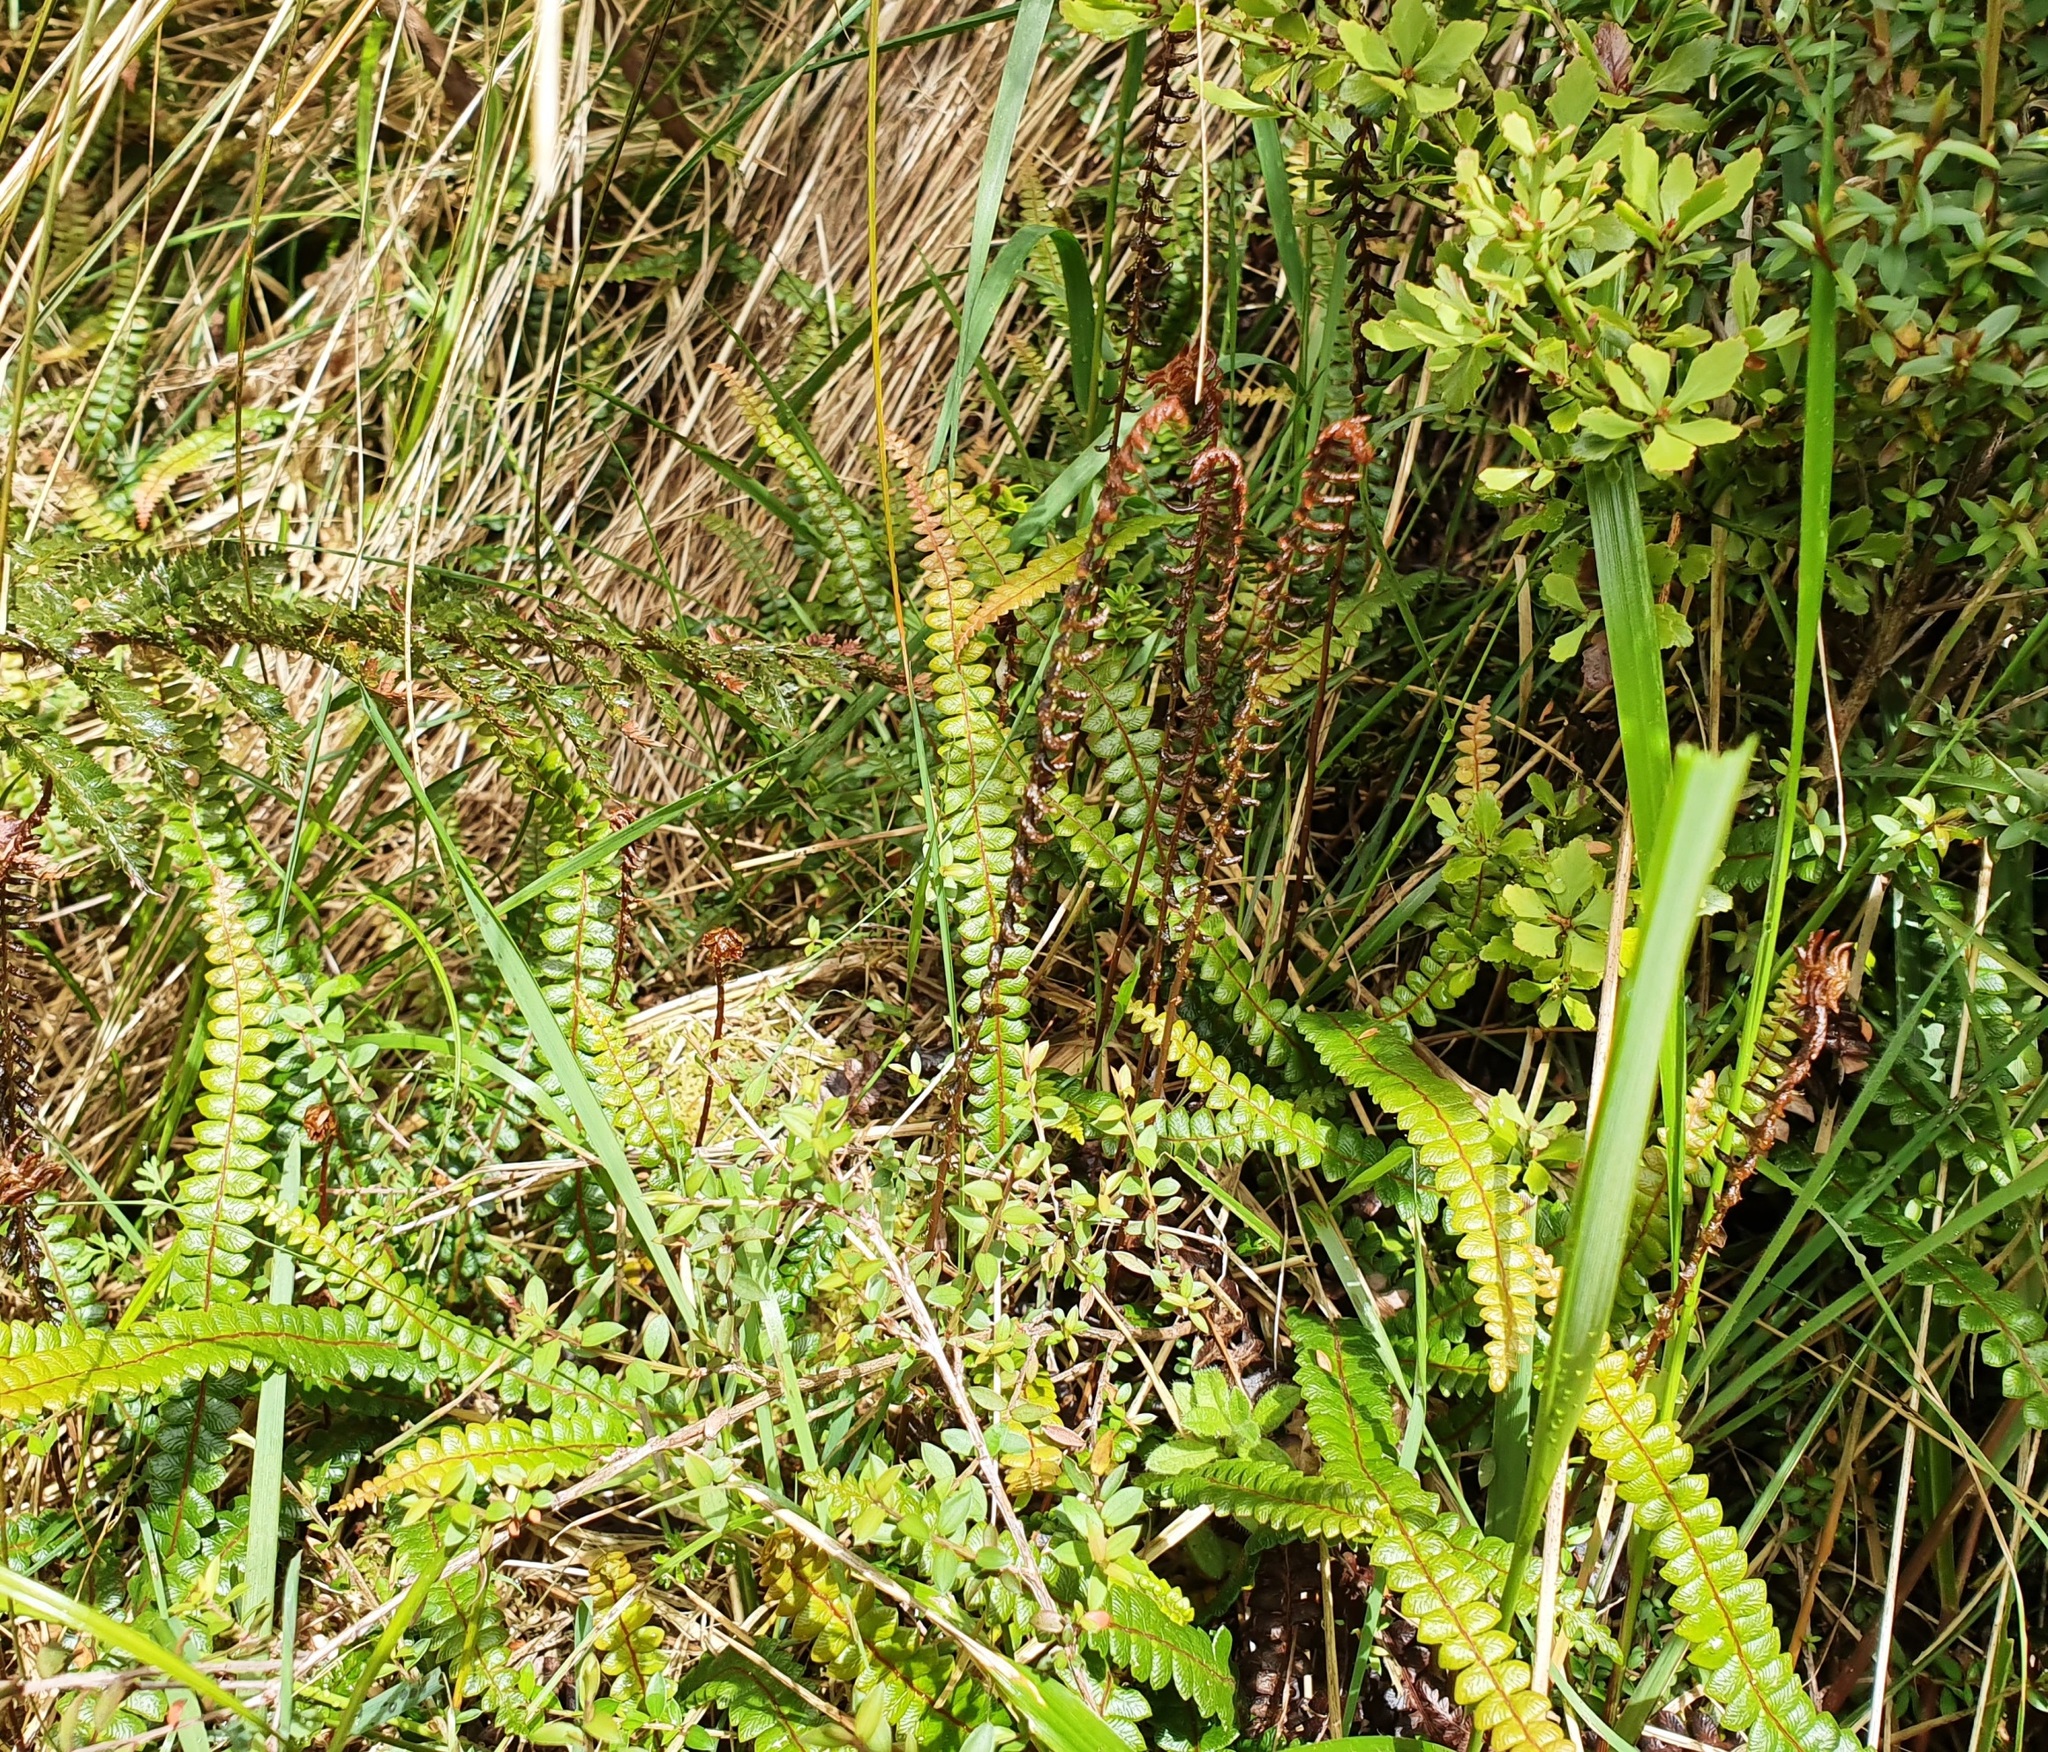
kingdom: Plantae
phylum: Tracheophyta
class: Polypodiopsida
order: Polypodiales
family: Blechnaceae
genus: Austroblechnum
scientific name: Austroblechnum penna-marina
